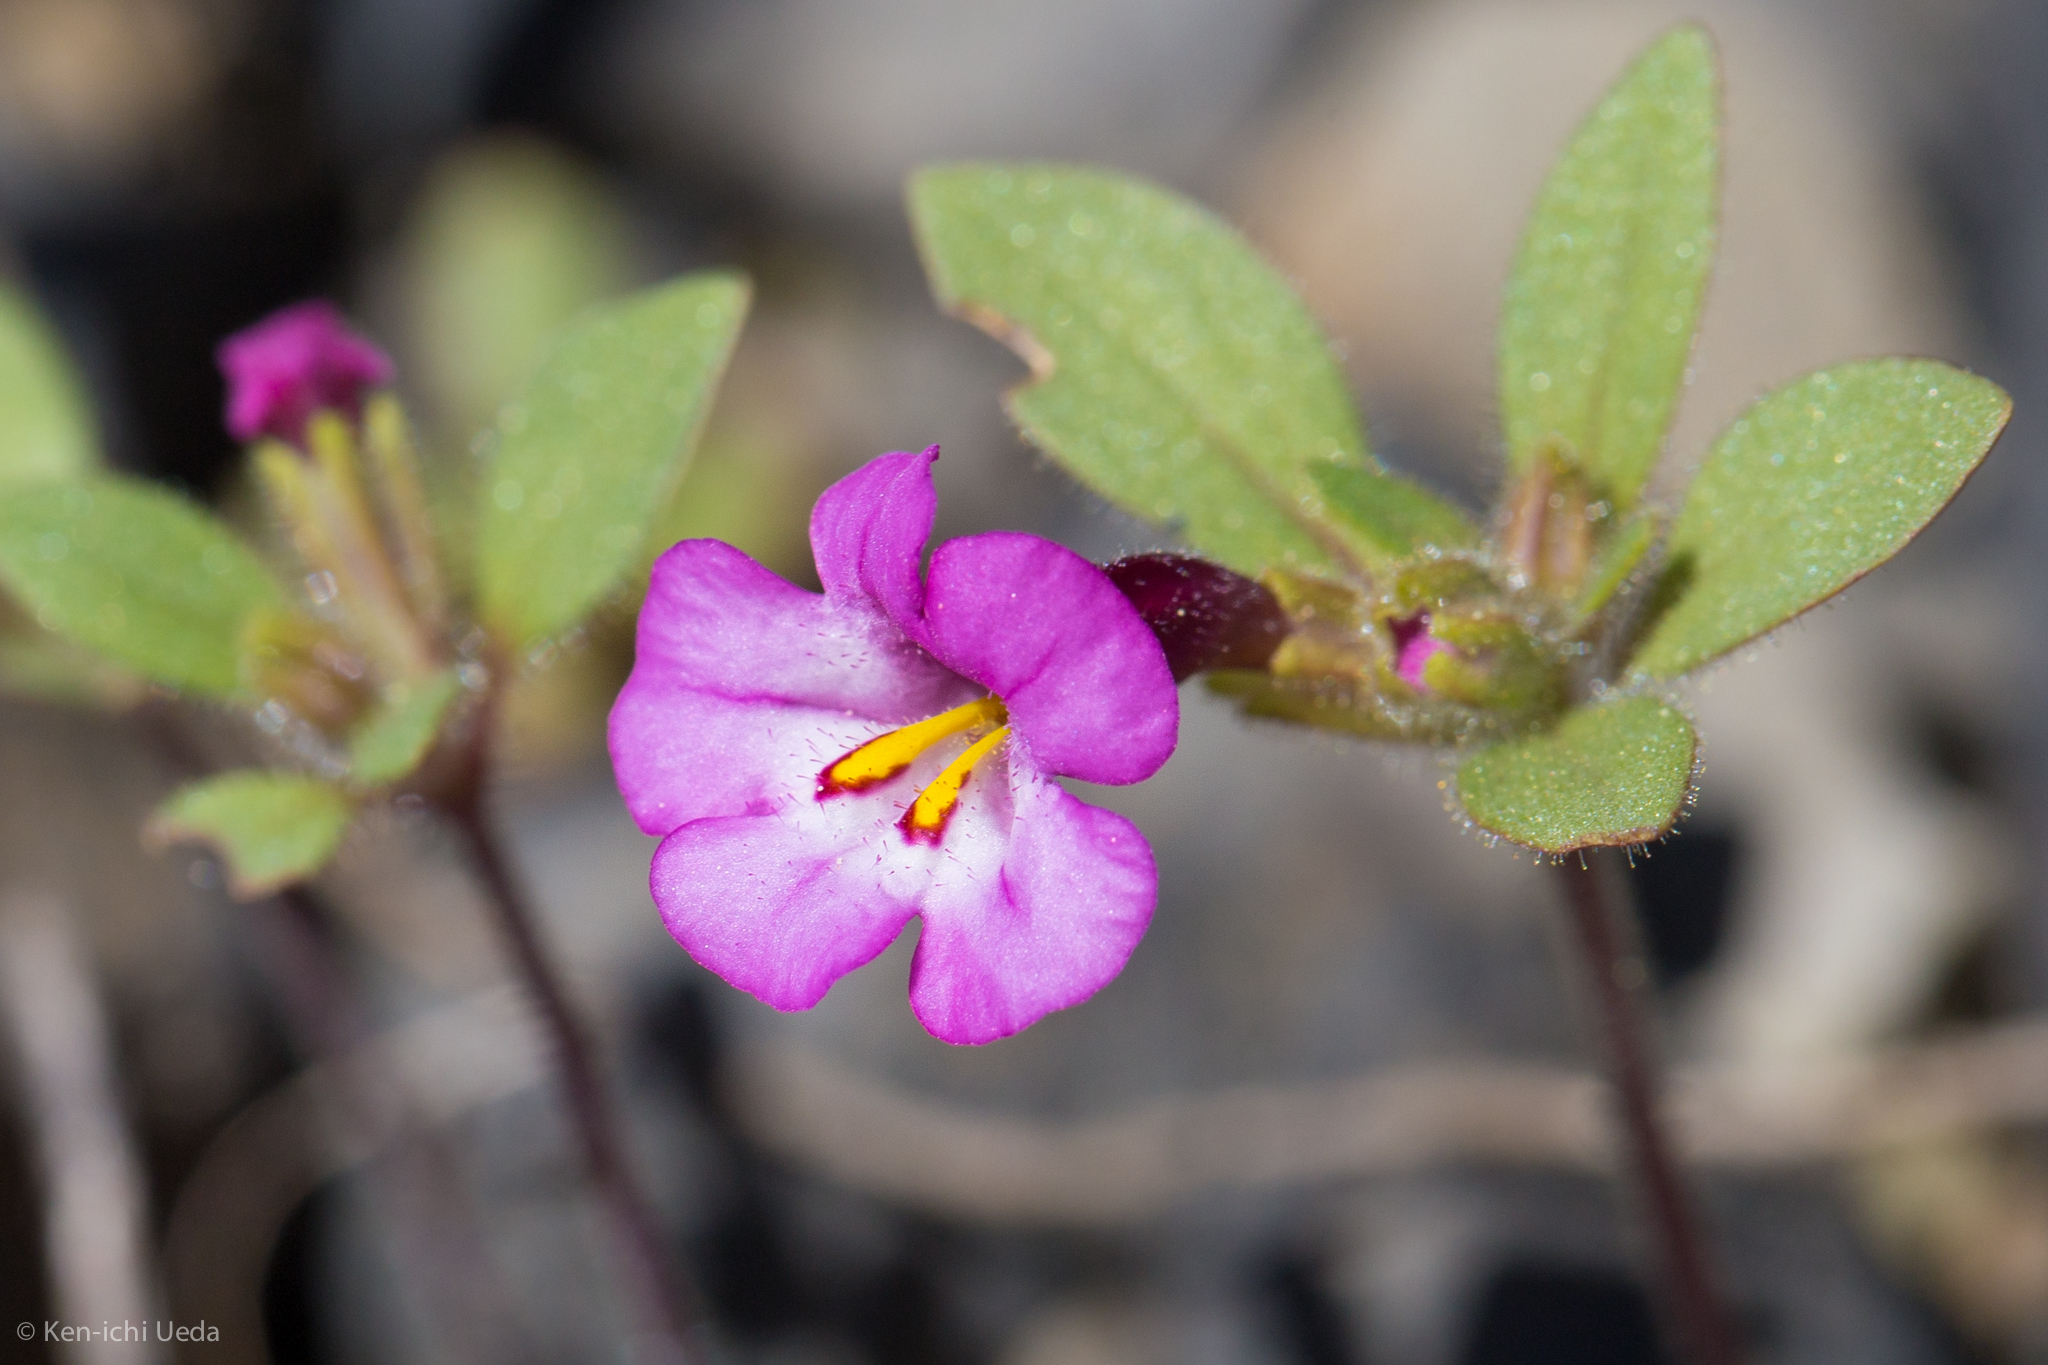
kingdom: Plantae
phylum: Tracheophyta
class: Magnoliopsida
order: Lamiales
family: Phrymaceae
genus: Diplacus
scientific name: Diplacus torreyi
